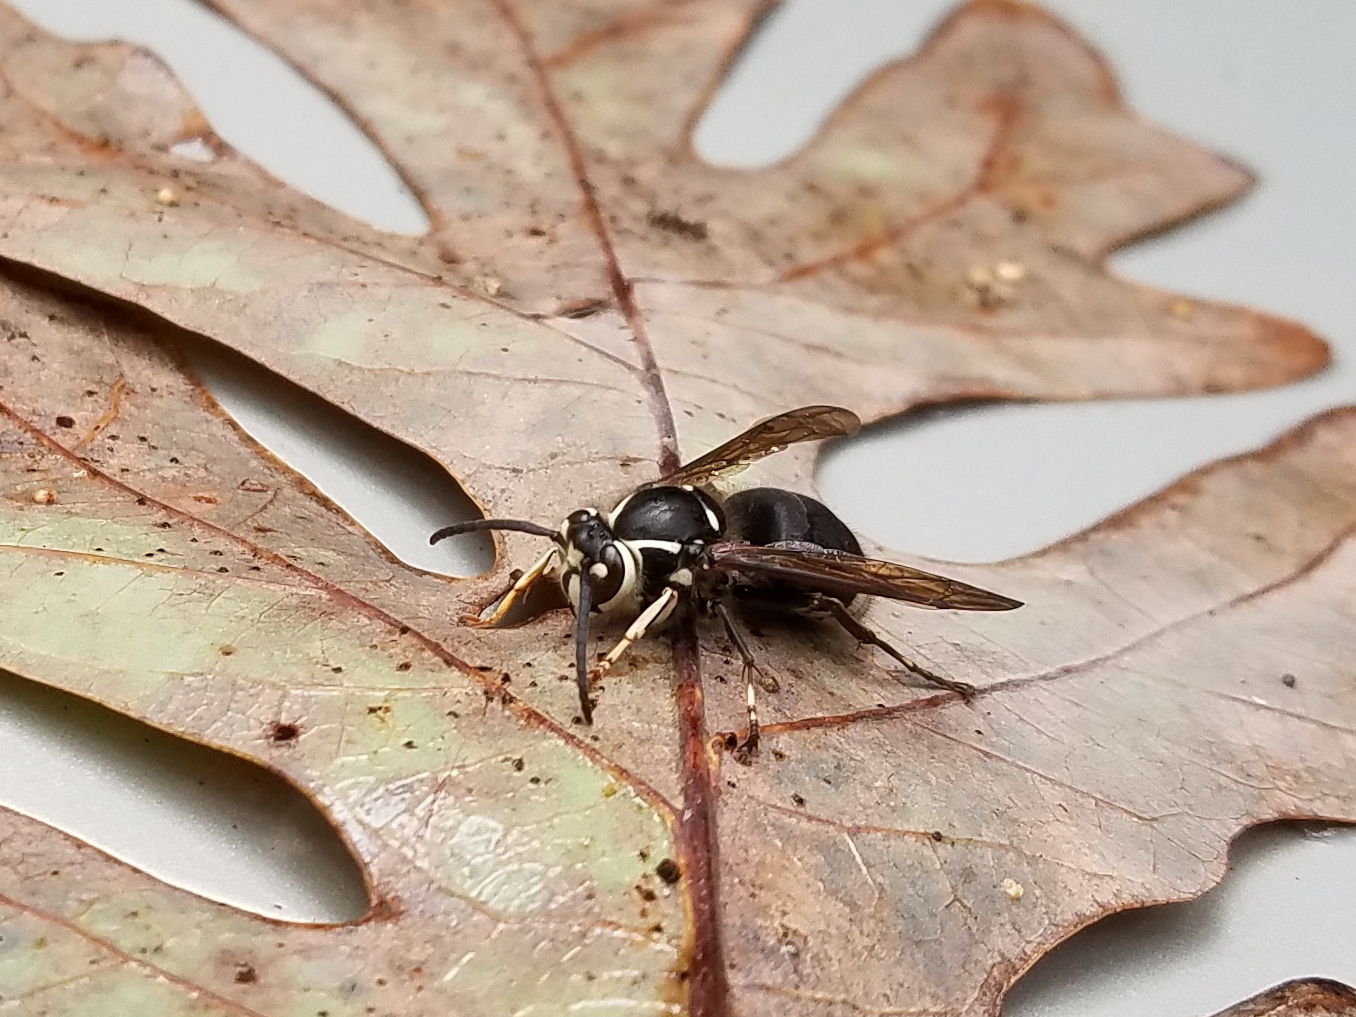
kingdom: Animalia
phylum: Arthropoda
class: Insecta
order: Hymenoptera
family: Vespidae
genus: Dolichovespula
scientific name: Dolichovespula maculata
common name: Bald-faced hornet
